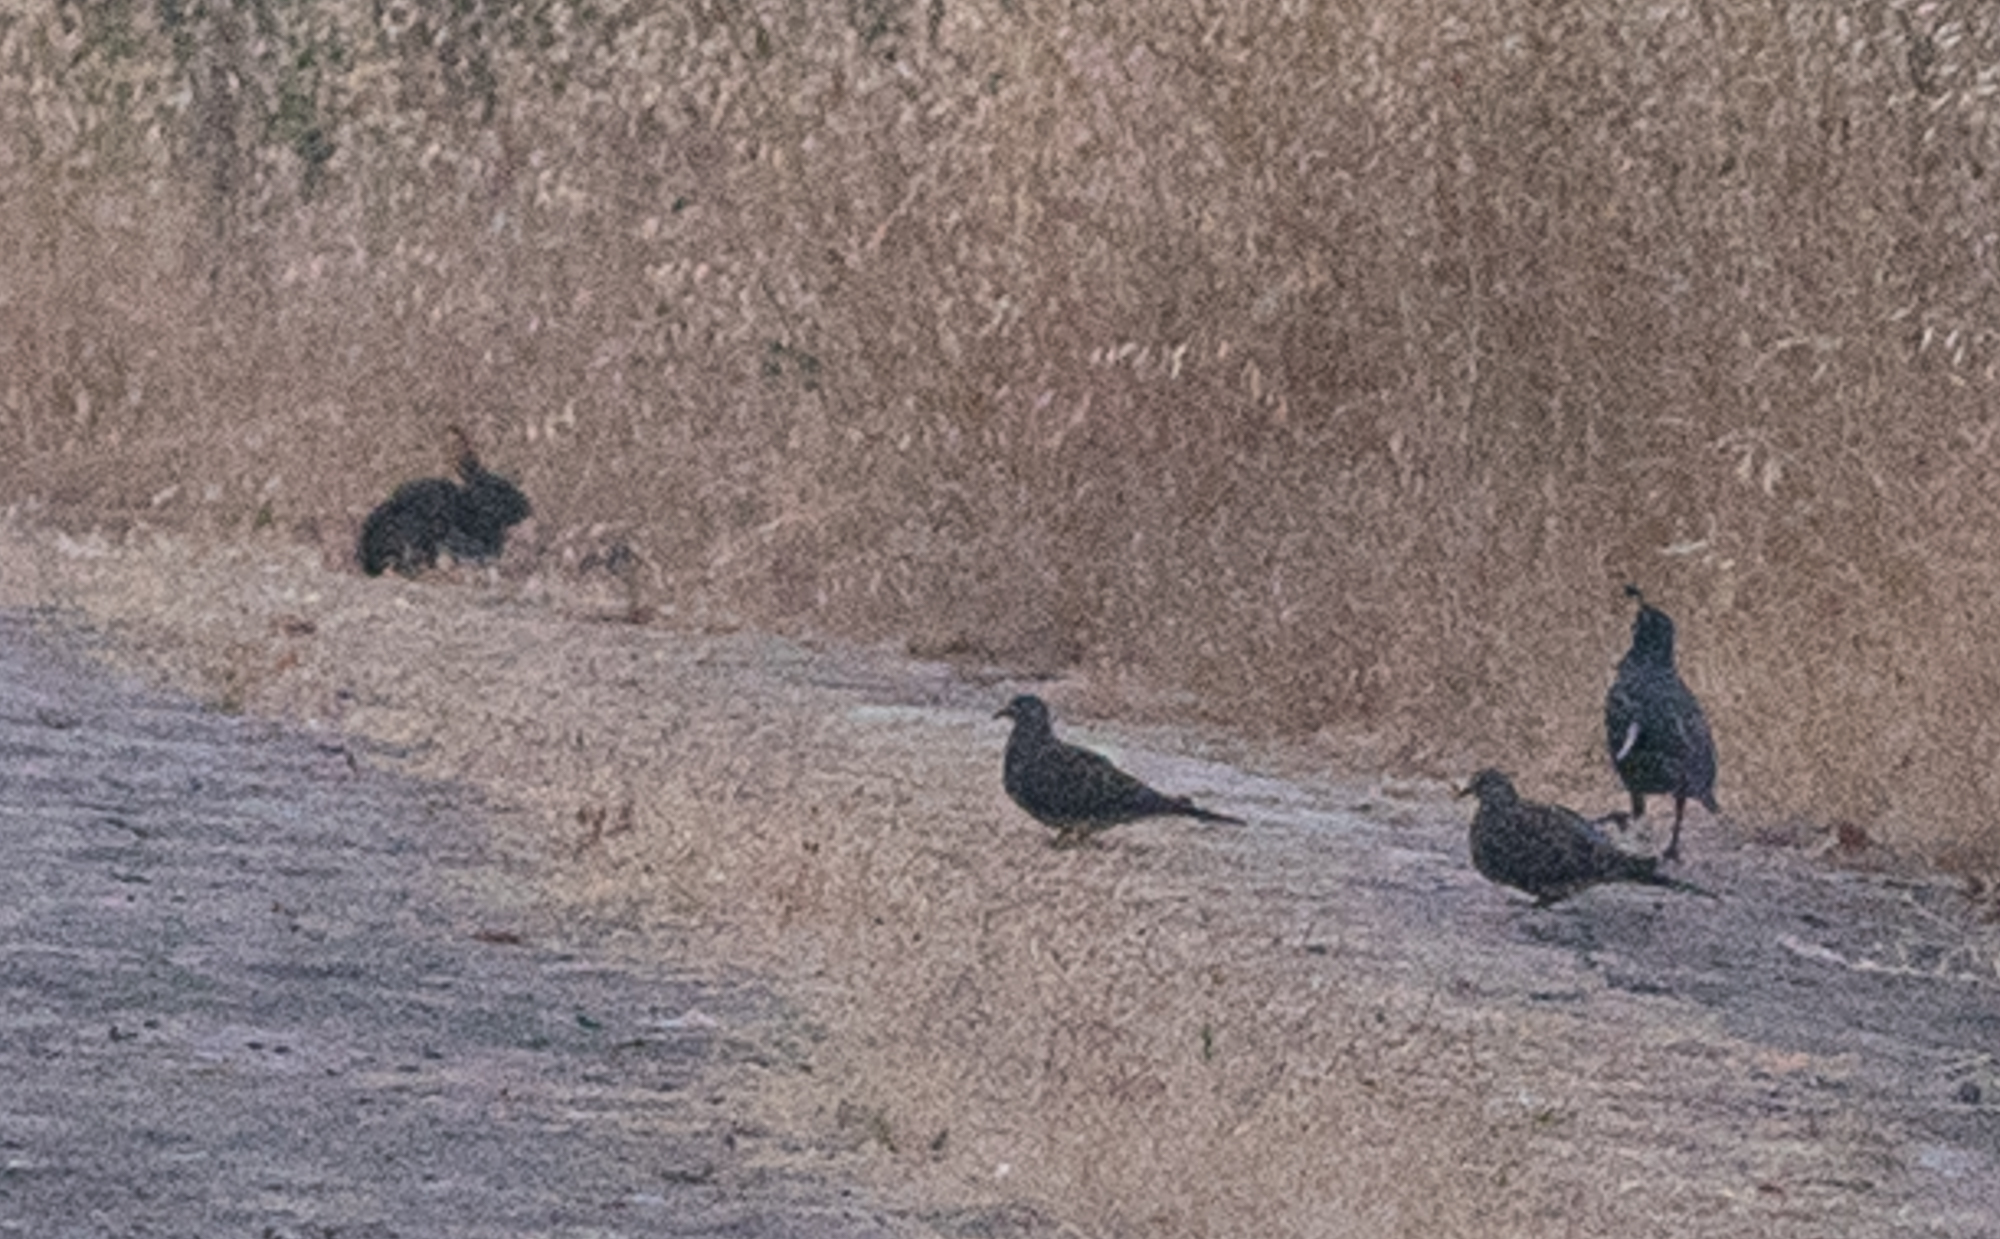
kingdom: Animalia
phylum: Chordata
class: Aves
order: Columbiformes
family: Columbidae
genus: Zenaida
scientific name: Zenaida macroura
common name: Mourning dove
